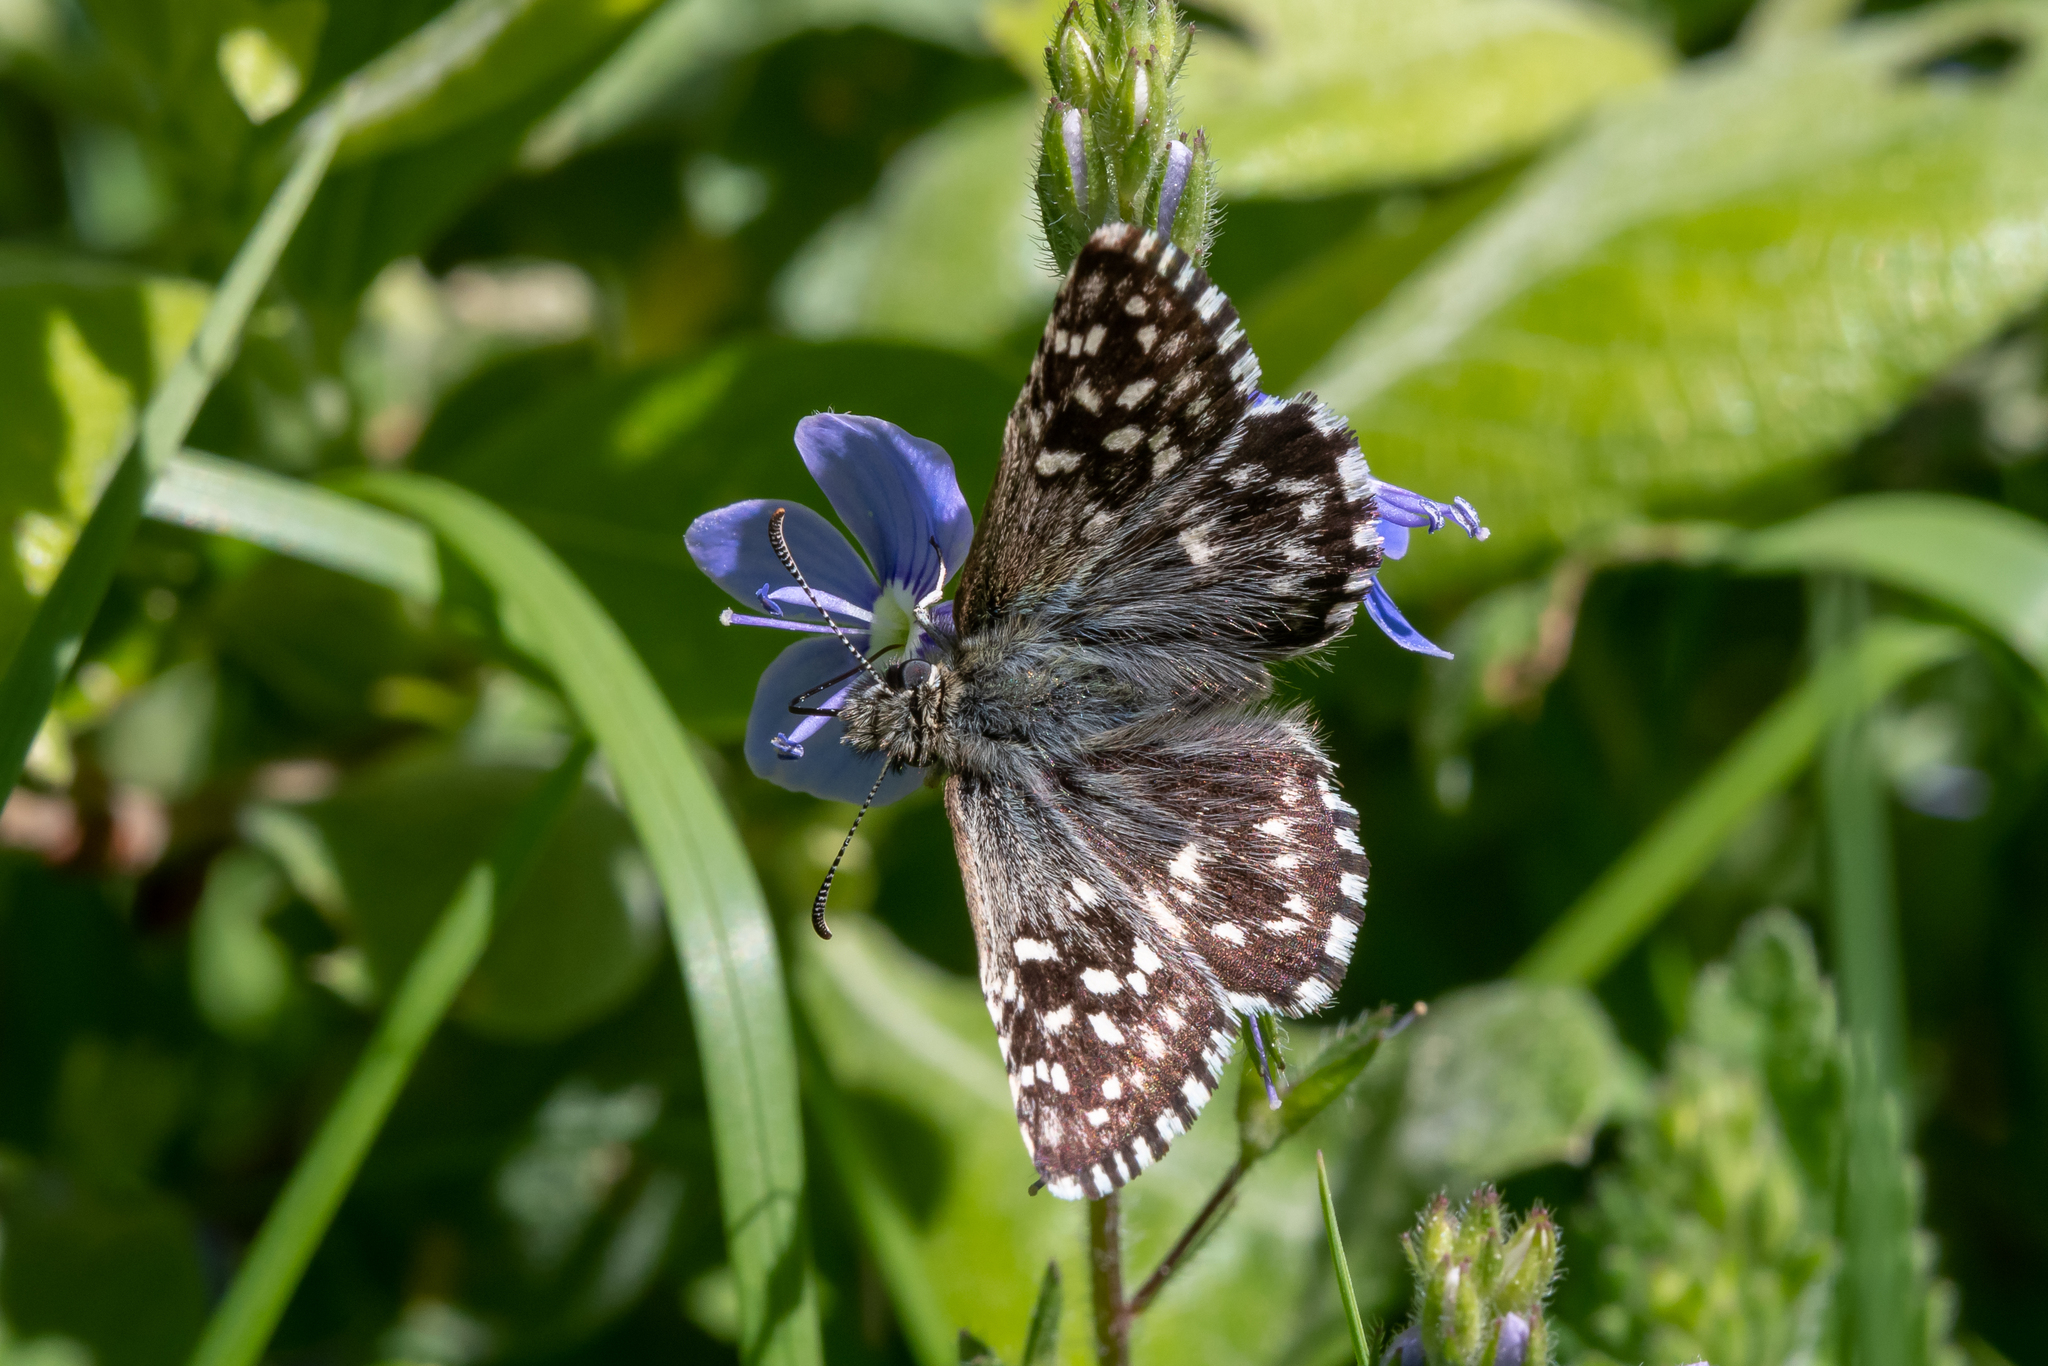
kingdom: Animalia
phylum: Arthropoda
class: Insecta
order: Lepidoptera
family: Hesperiidae
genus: Pyrgus
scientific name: Pyrgus malvae
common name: Grizzled skipper
